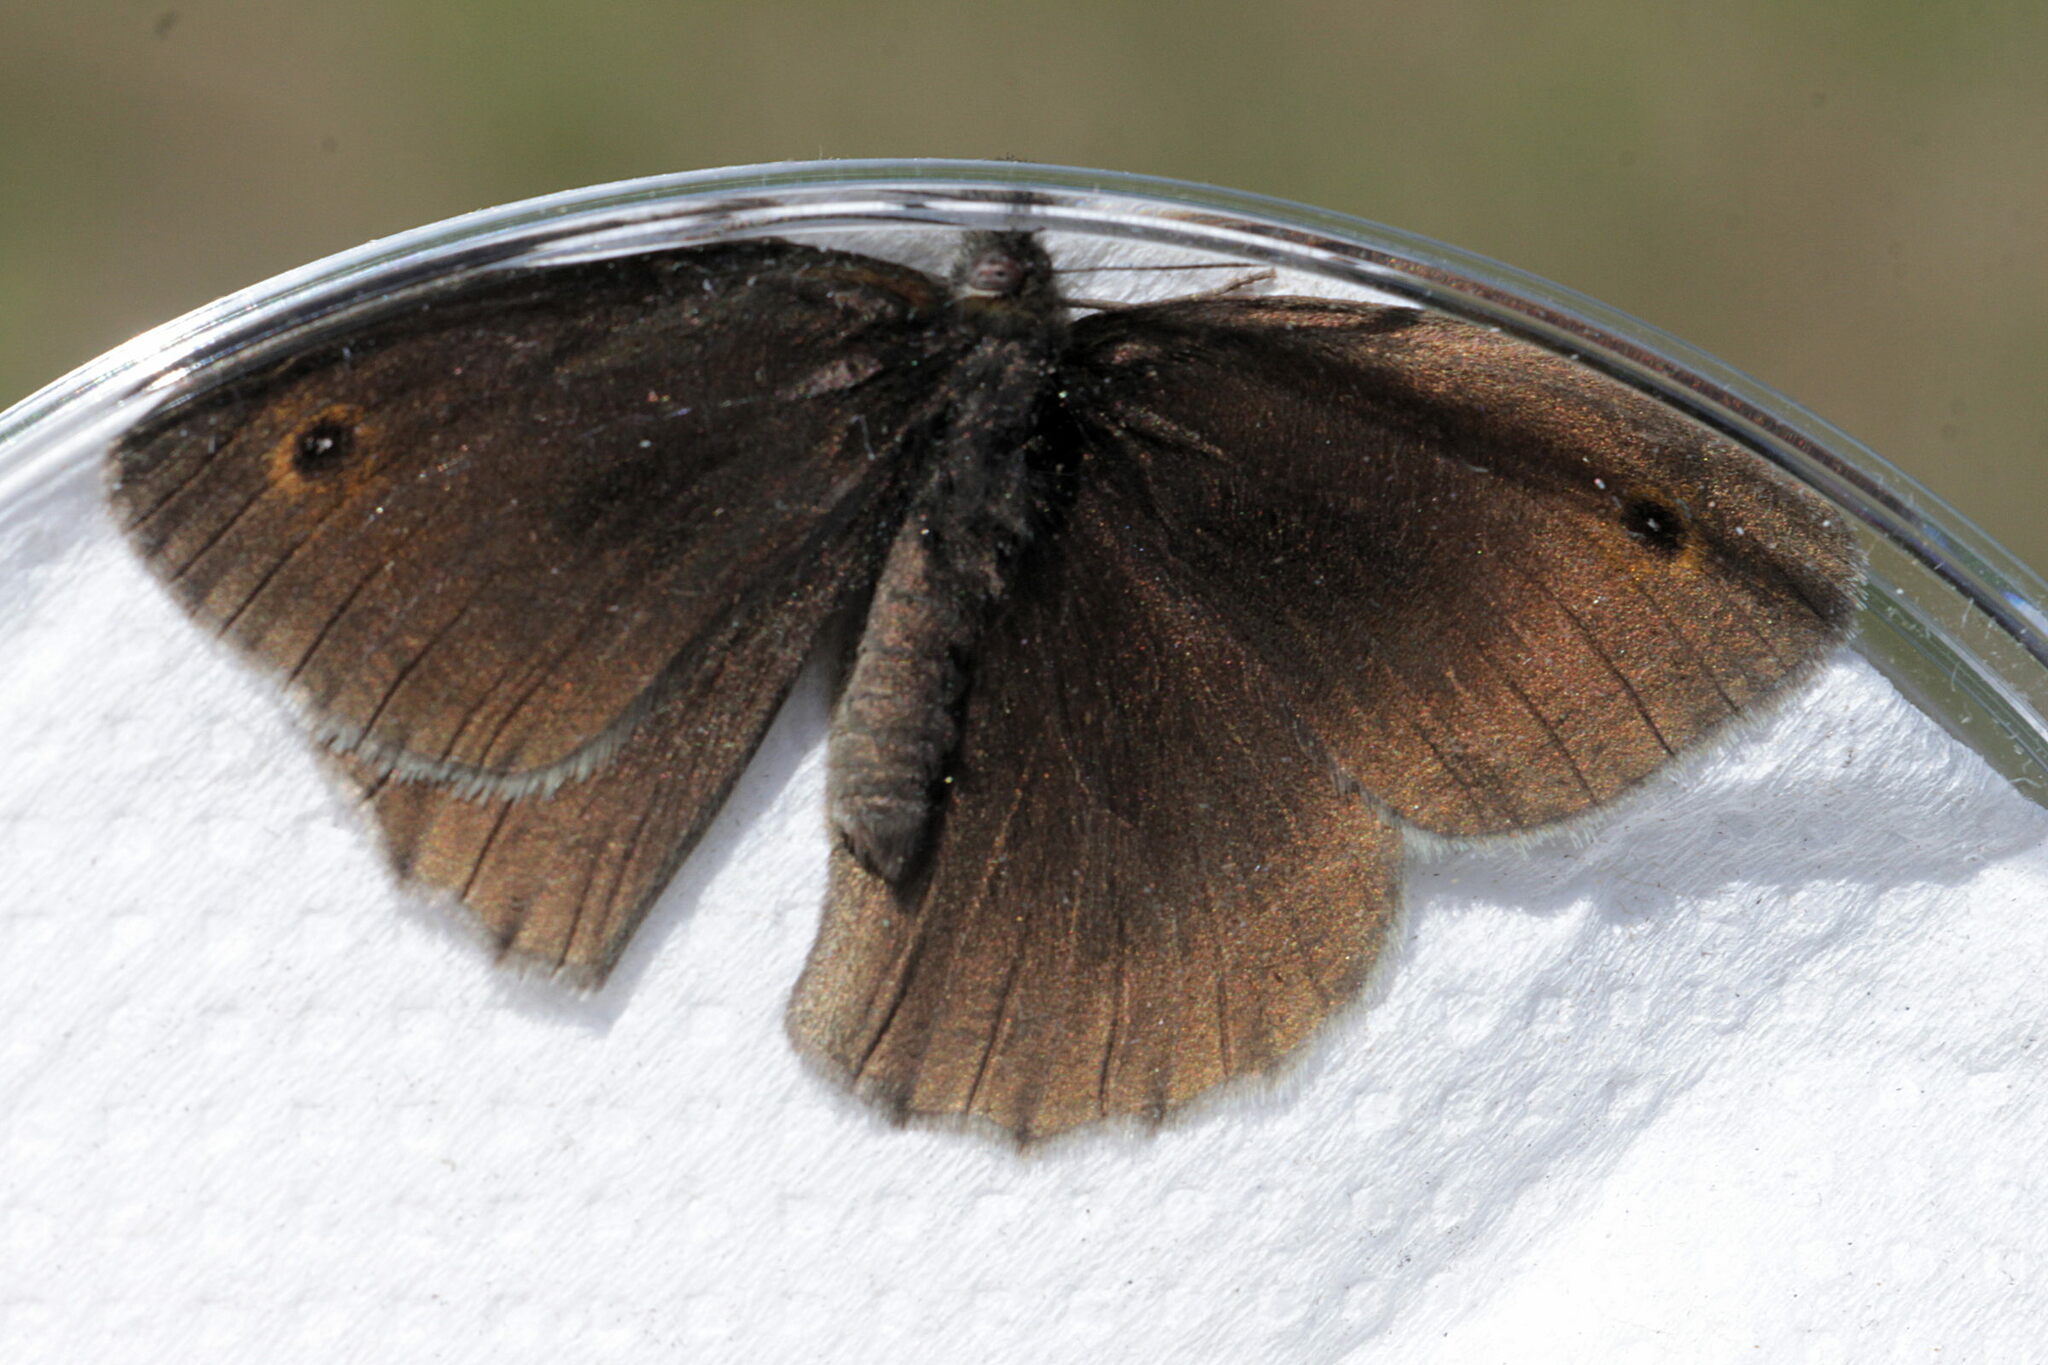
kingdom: Animalia
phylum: Arthropoda
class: Insecta
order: Lepidoptera
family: Nymphalidae
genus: Maniola
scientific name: Maniola jurtina
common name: Meadow brown
